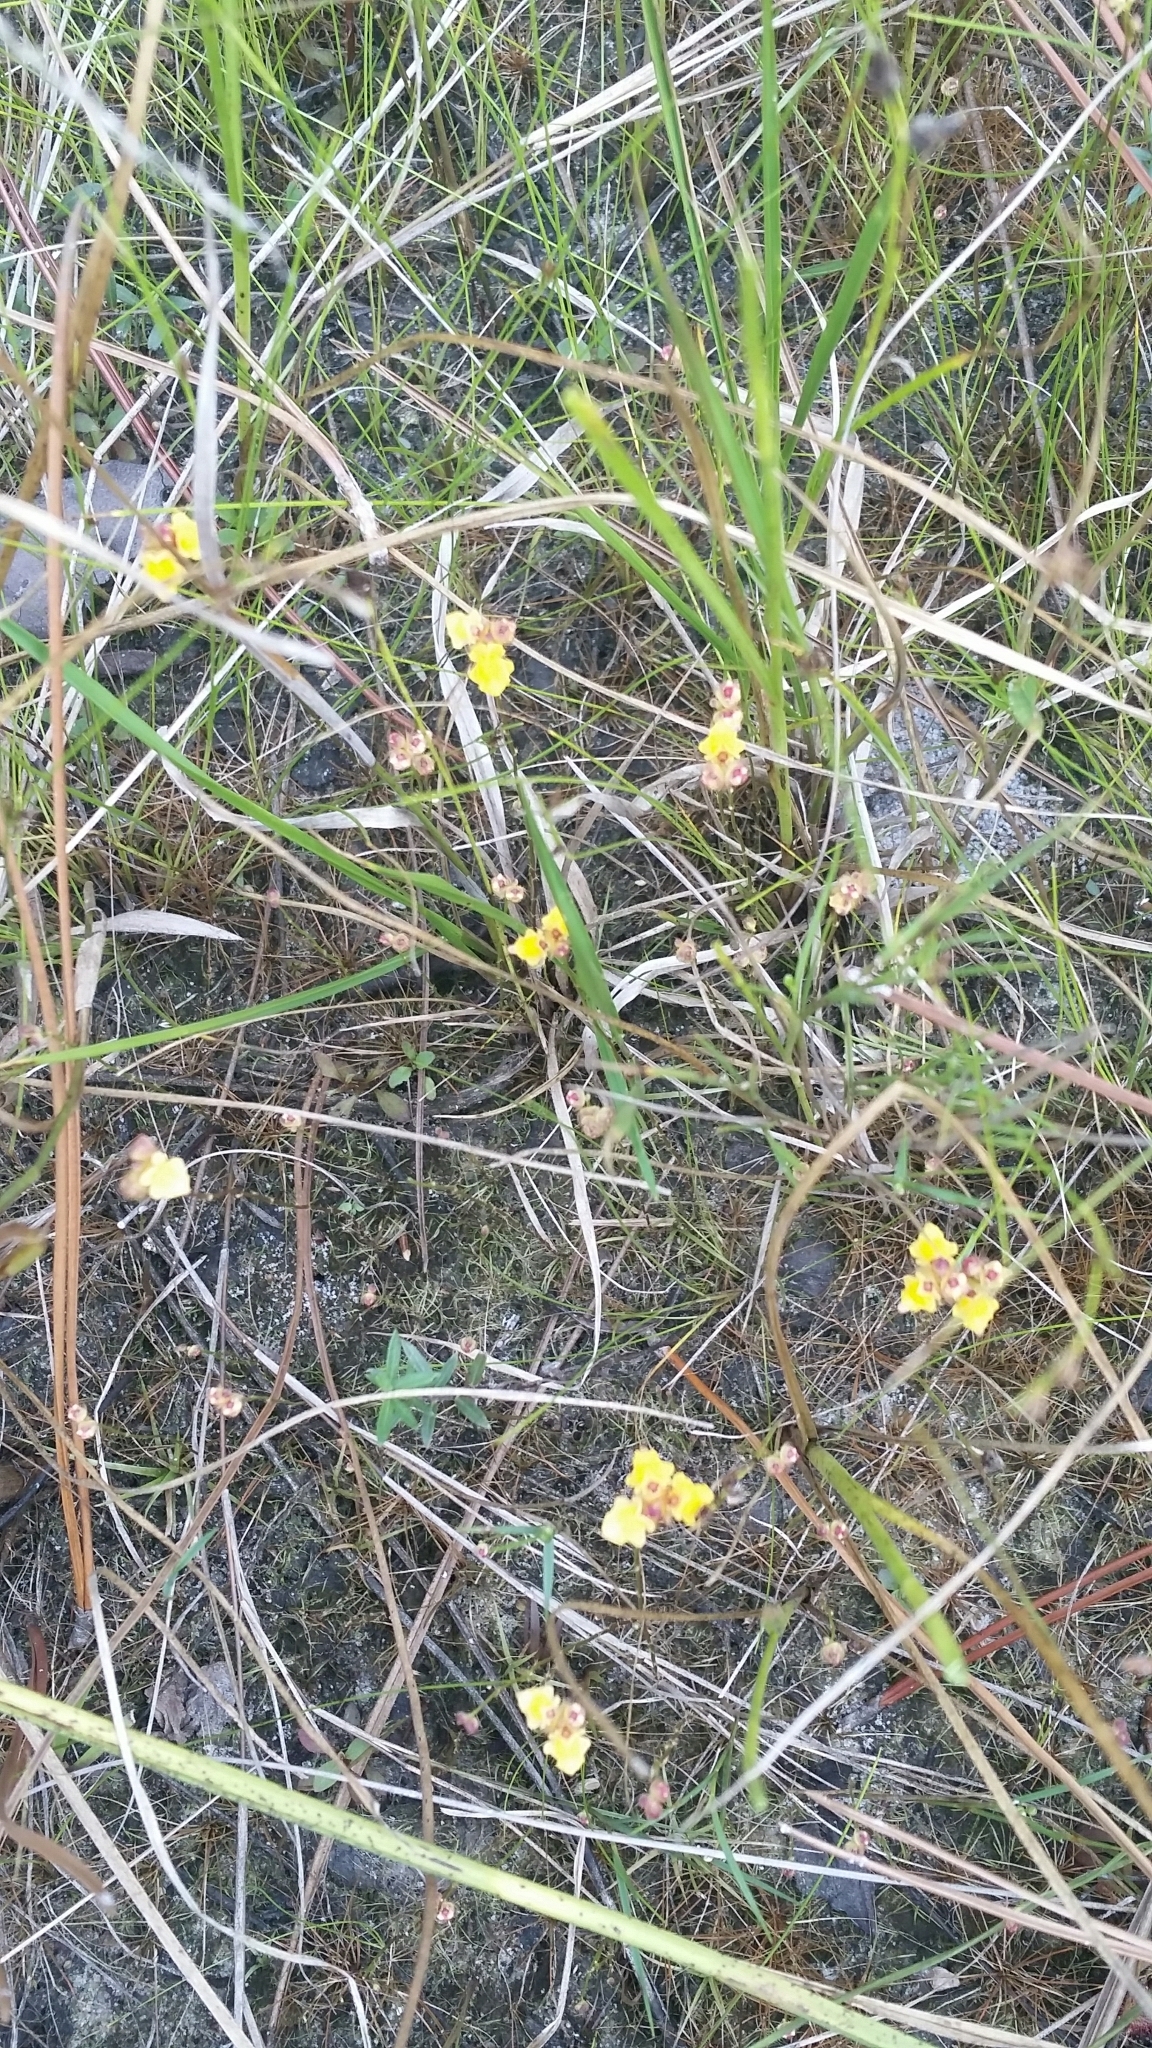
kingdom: Plantae
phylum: Tracheophyta
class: Magnoliopsida
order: Lamiales
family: Lentibulariaceae
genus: Utricularia
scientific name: Utricularia simulans
